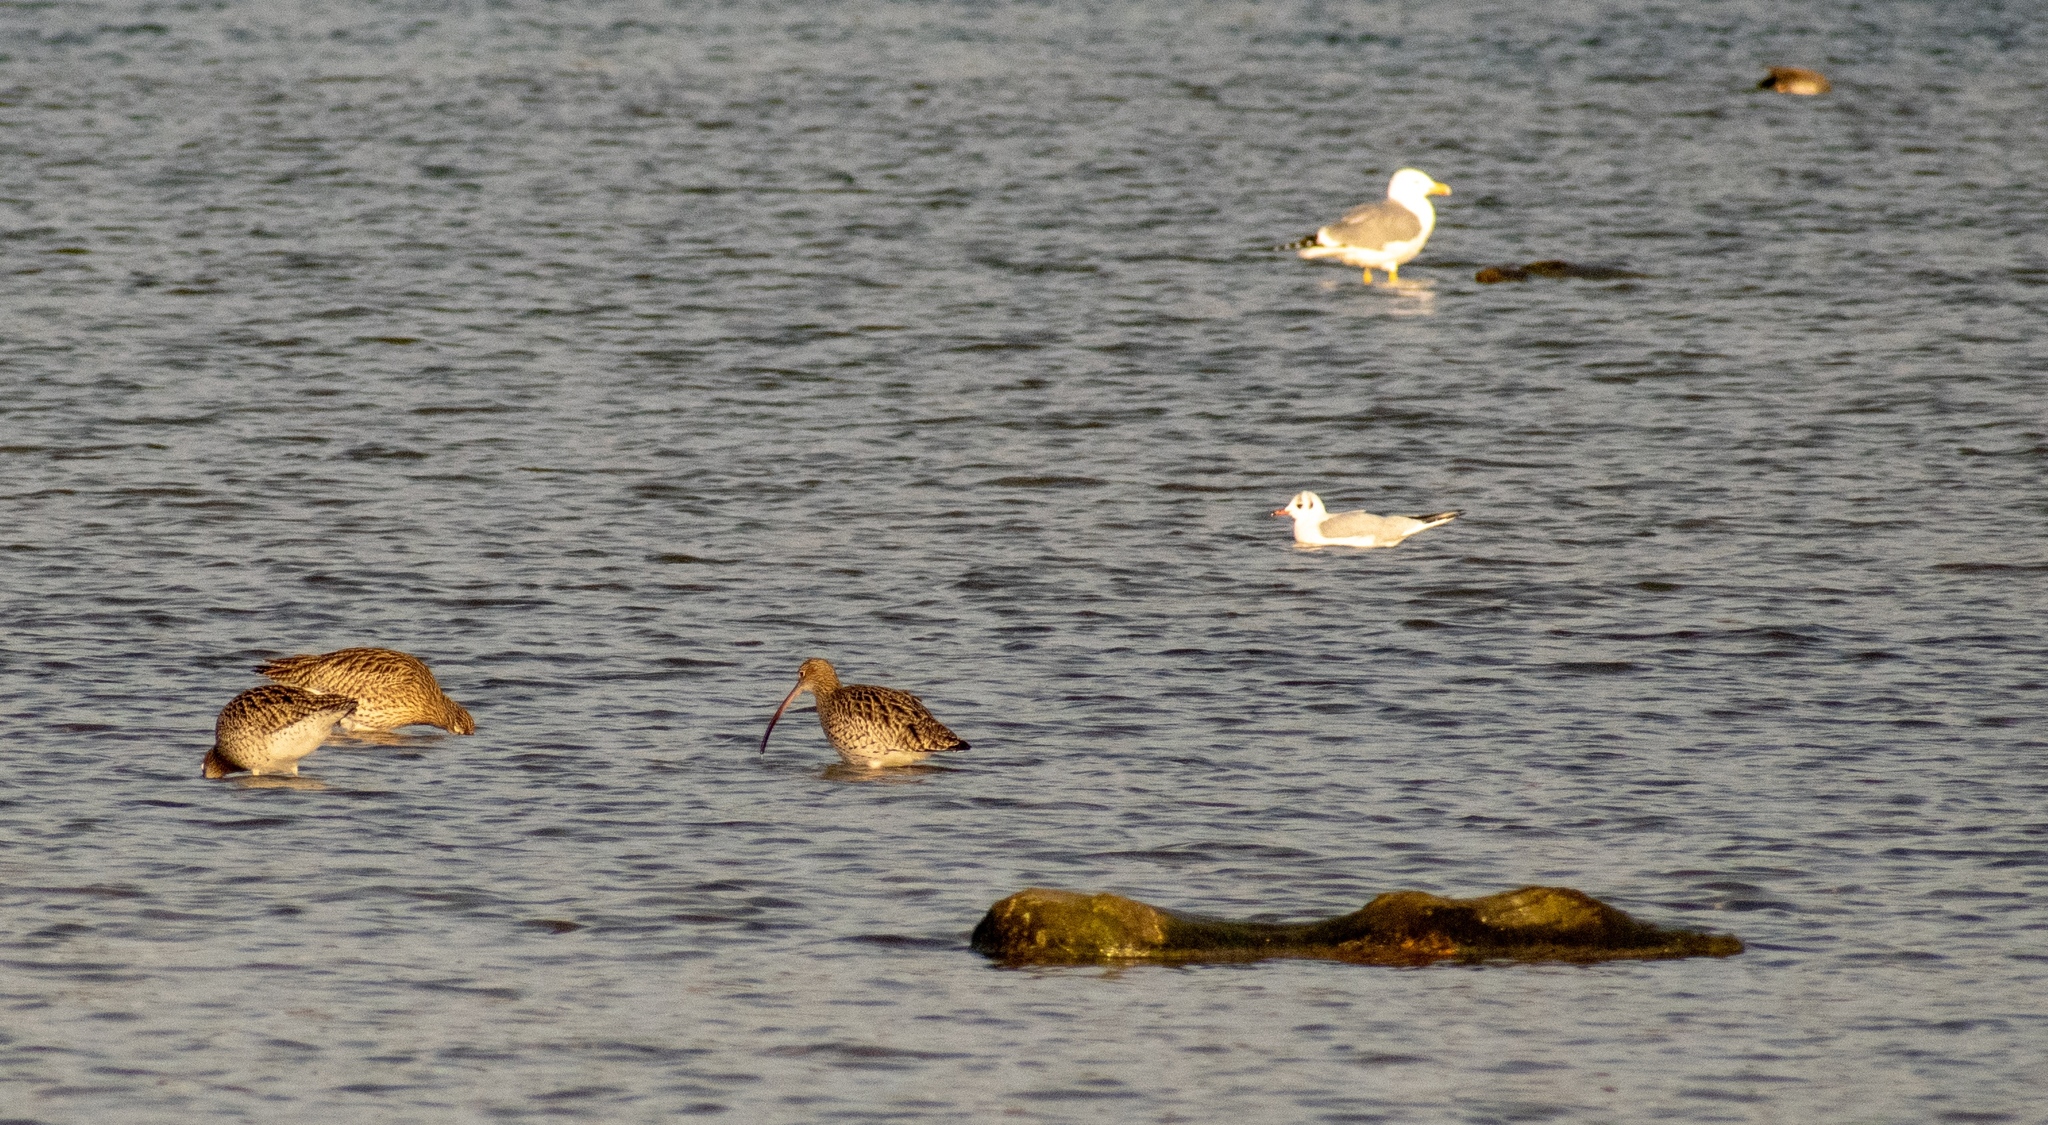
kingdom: Animalia
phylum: Chordata
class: Aves
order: Charadriiformes
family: Laridae
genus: Chroicocephalus
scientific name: Chroicocephalus ridibundus
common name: Black-headed gull
